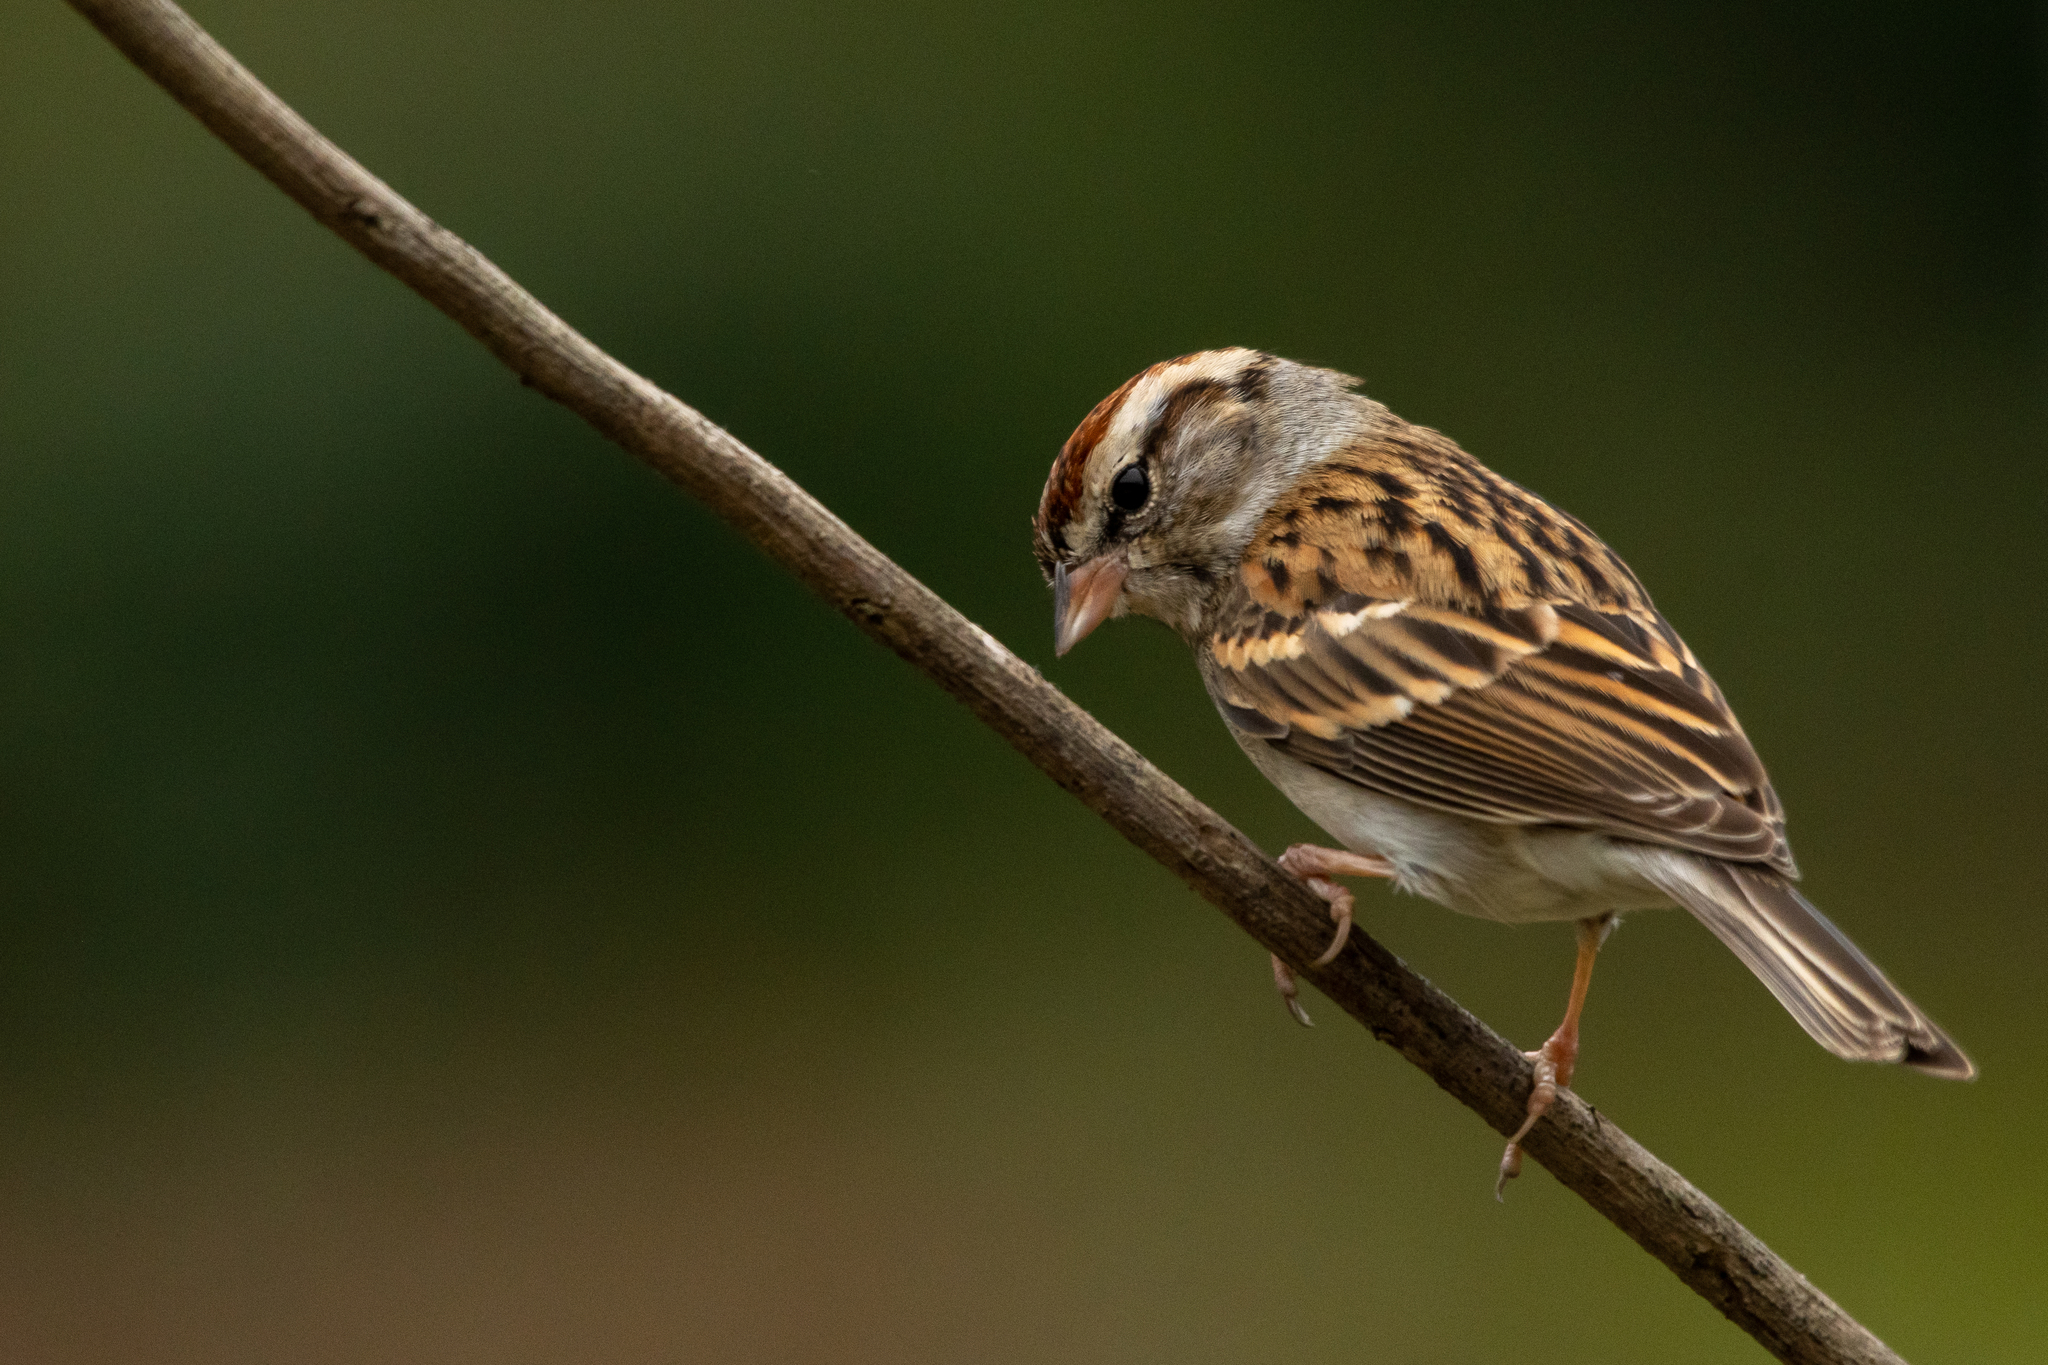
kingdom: Animalia
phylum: Chordata
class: Aves
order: Passeriformes
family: Passerellidae
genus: Spizella
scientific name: Spizella passerina
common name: Chipping sparrow
